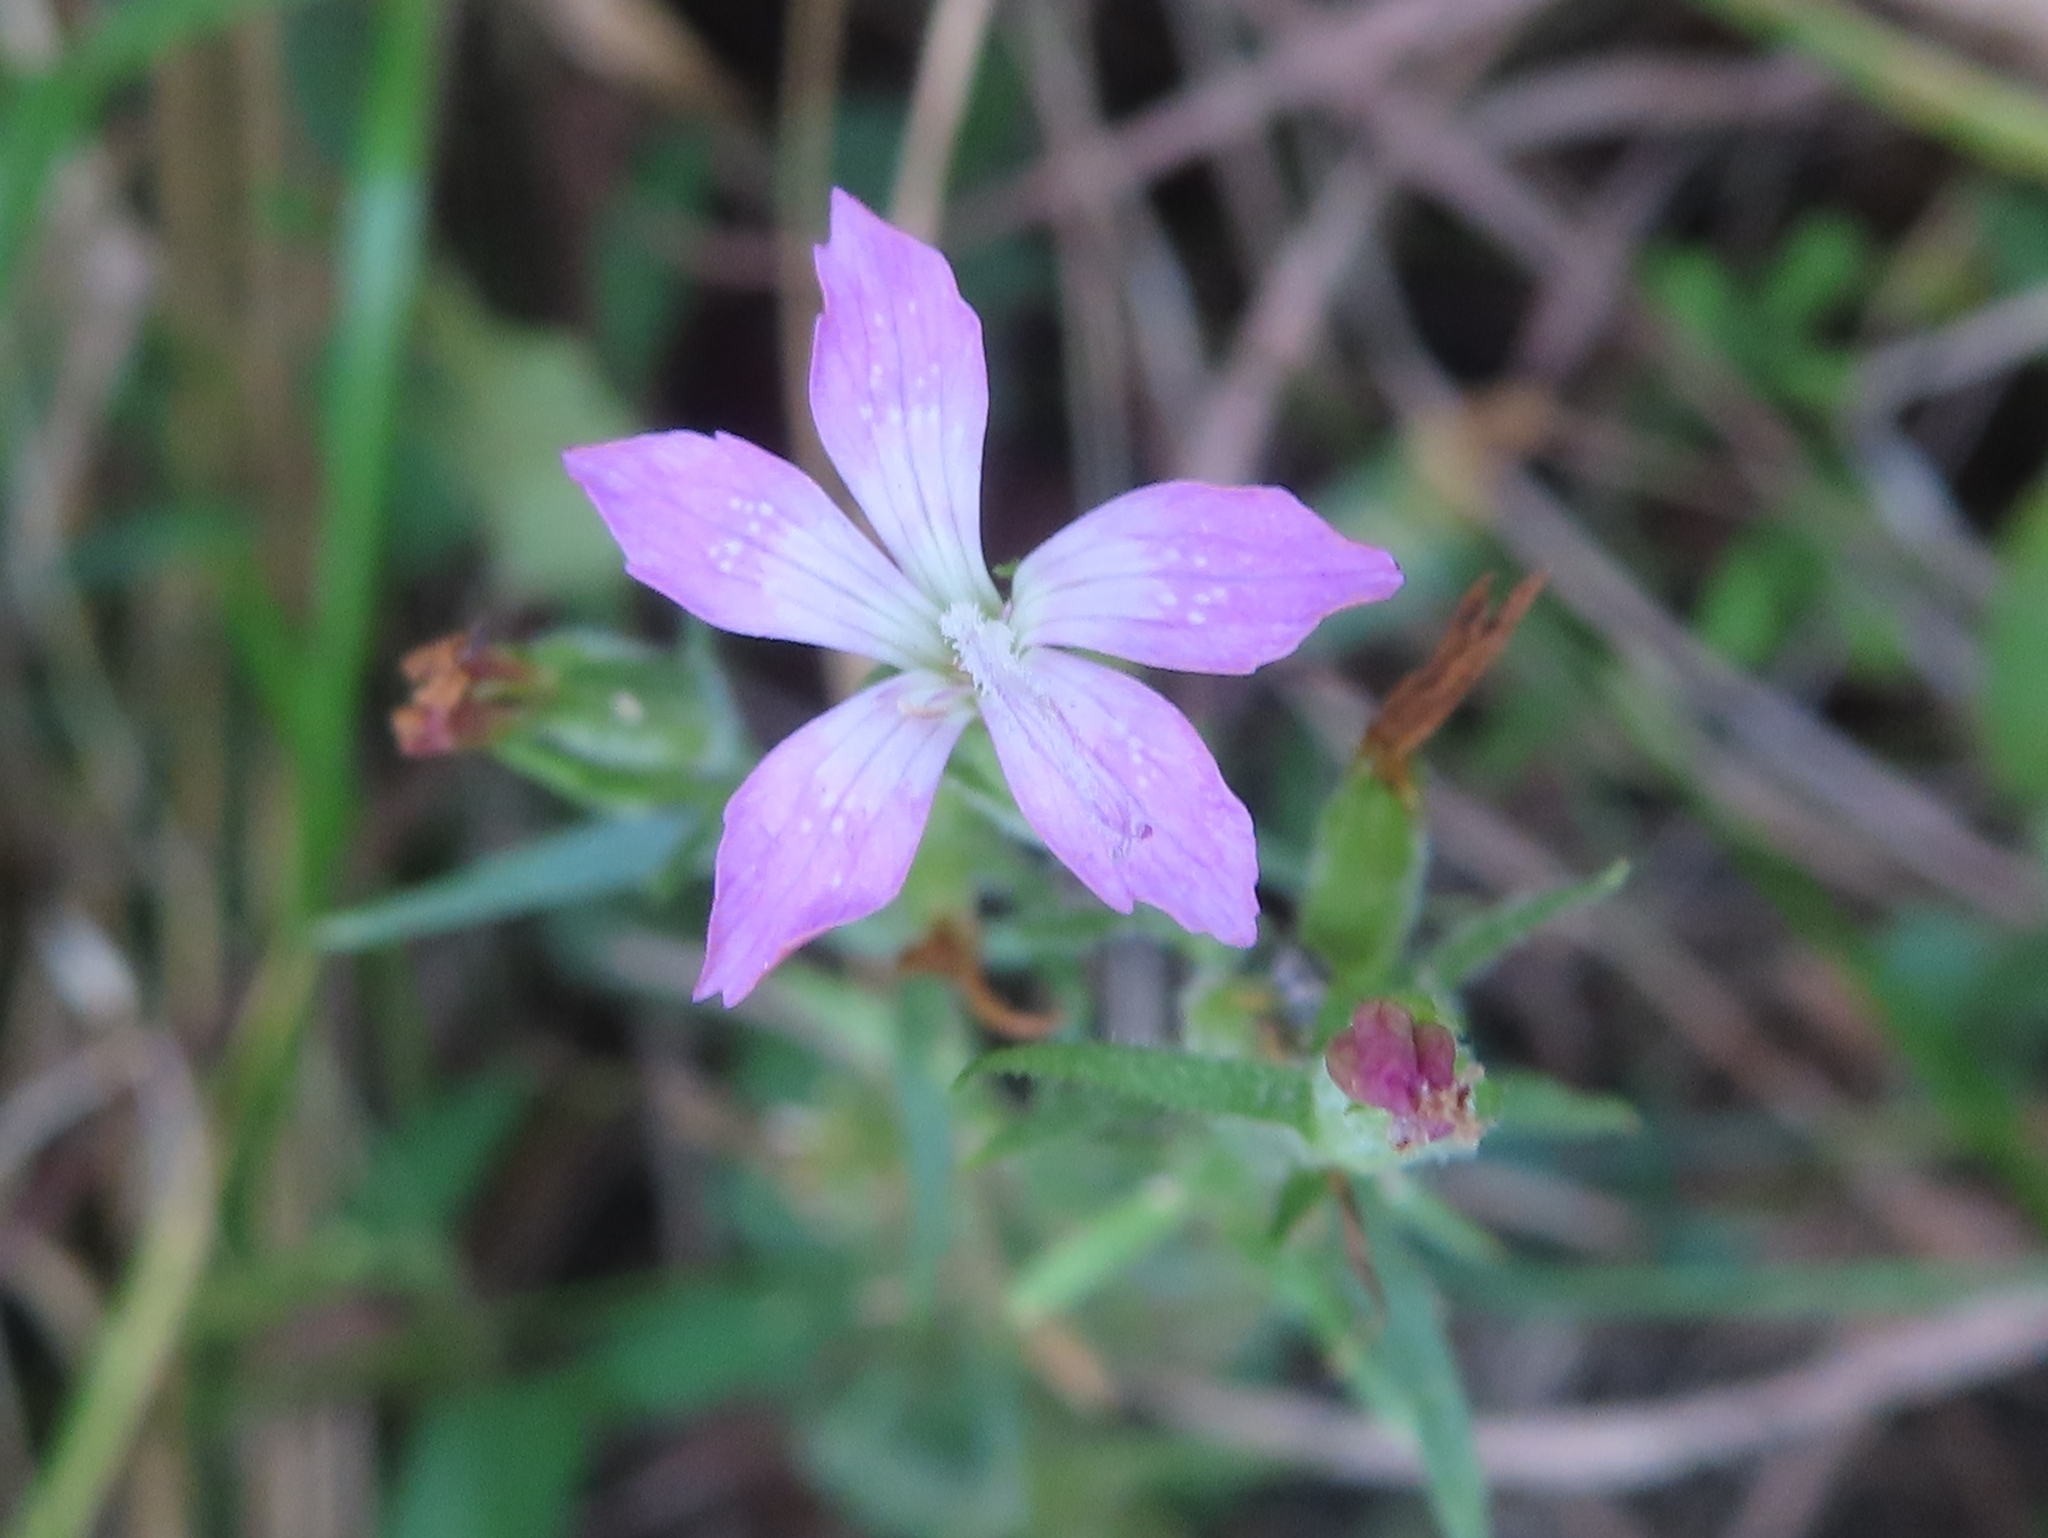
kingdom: Plantae
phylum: Tracheophyta
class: Magnoliopsida
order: Caryophyllales
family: Caryophyllaceae
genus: Dianthus
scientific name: Dianthus armeria
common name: Deptford pink
